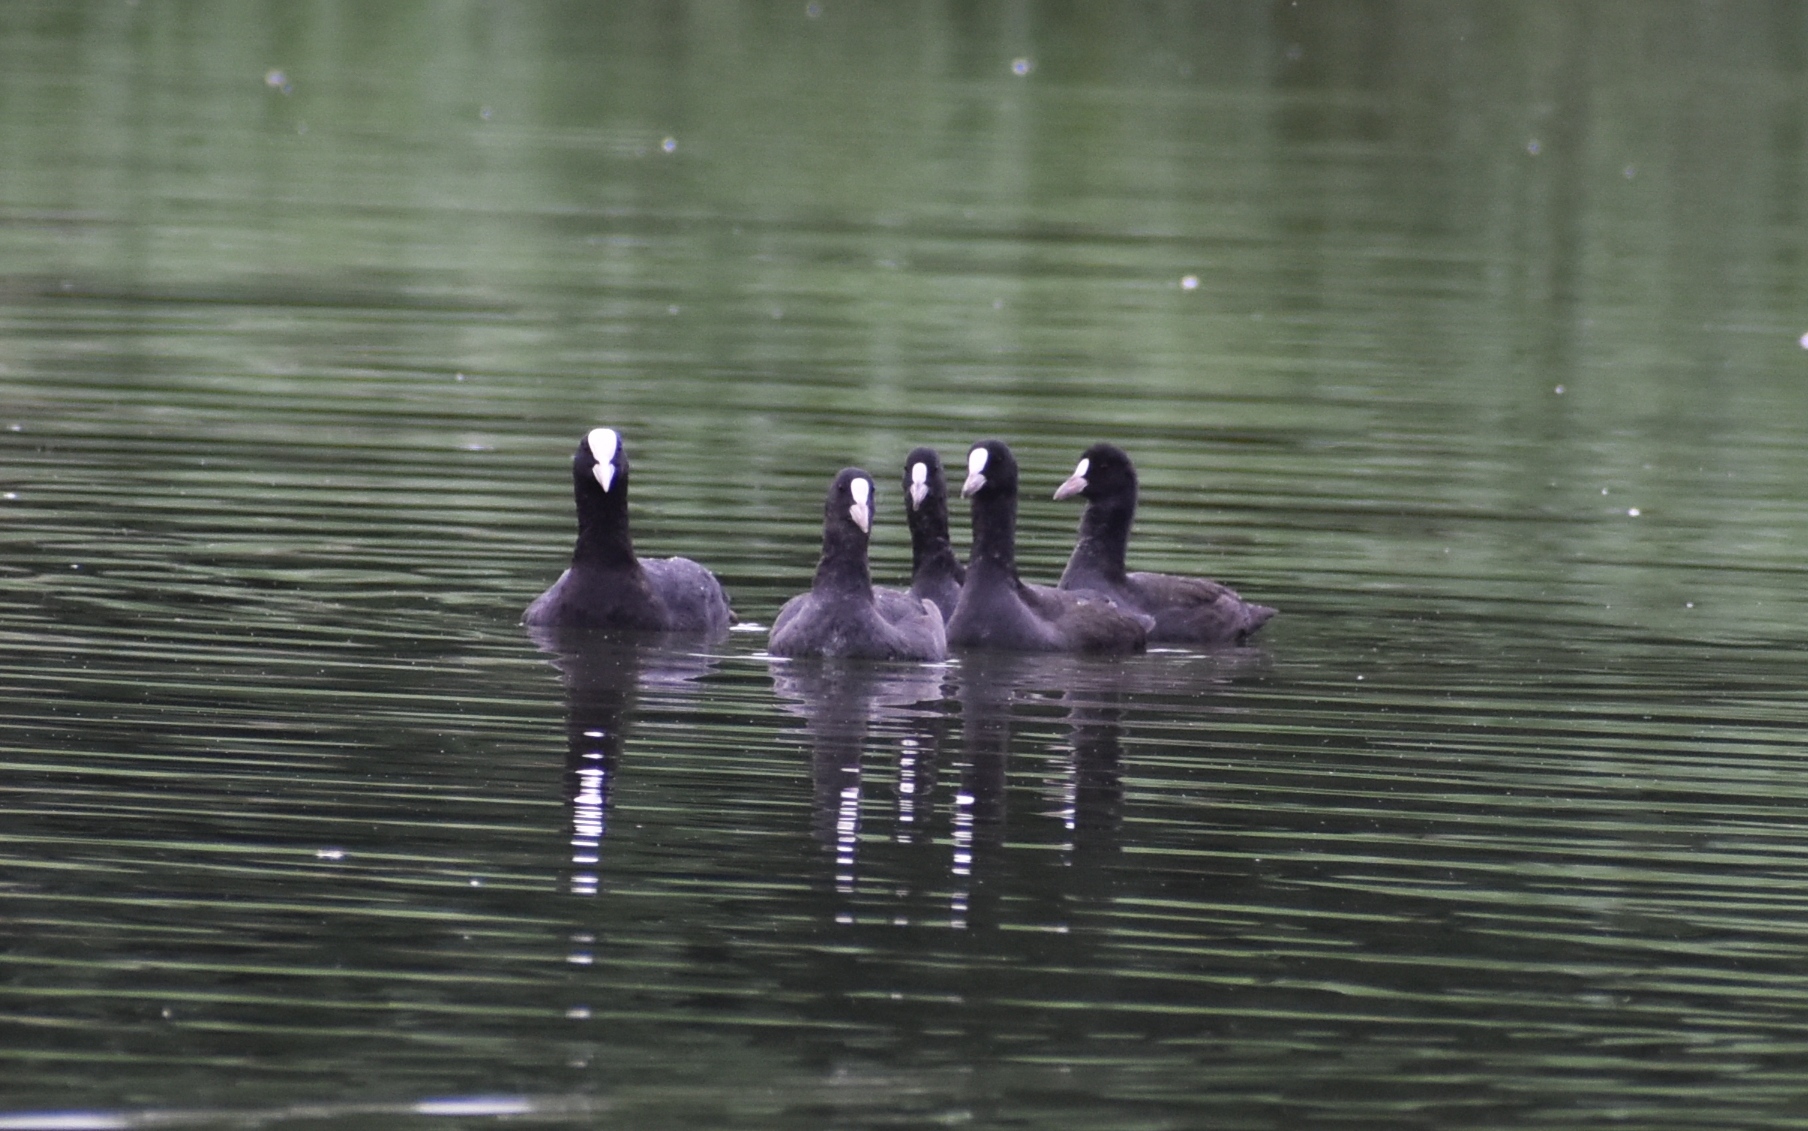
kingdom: Animalia
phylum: Chordata
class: Aves
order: Gruiformes
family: Rallidae
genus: Fulica
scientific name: Fulica atra
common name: Eurasian coot
